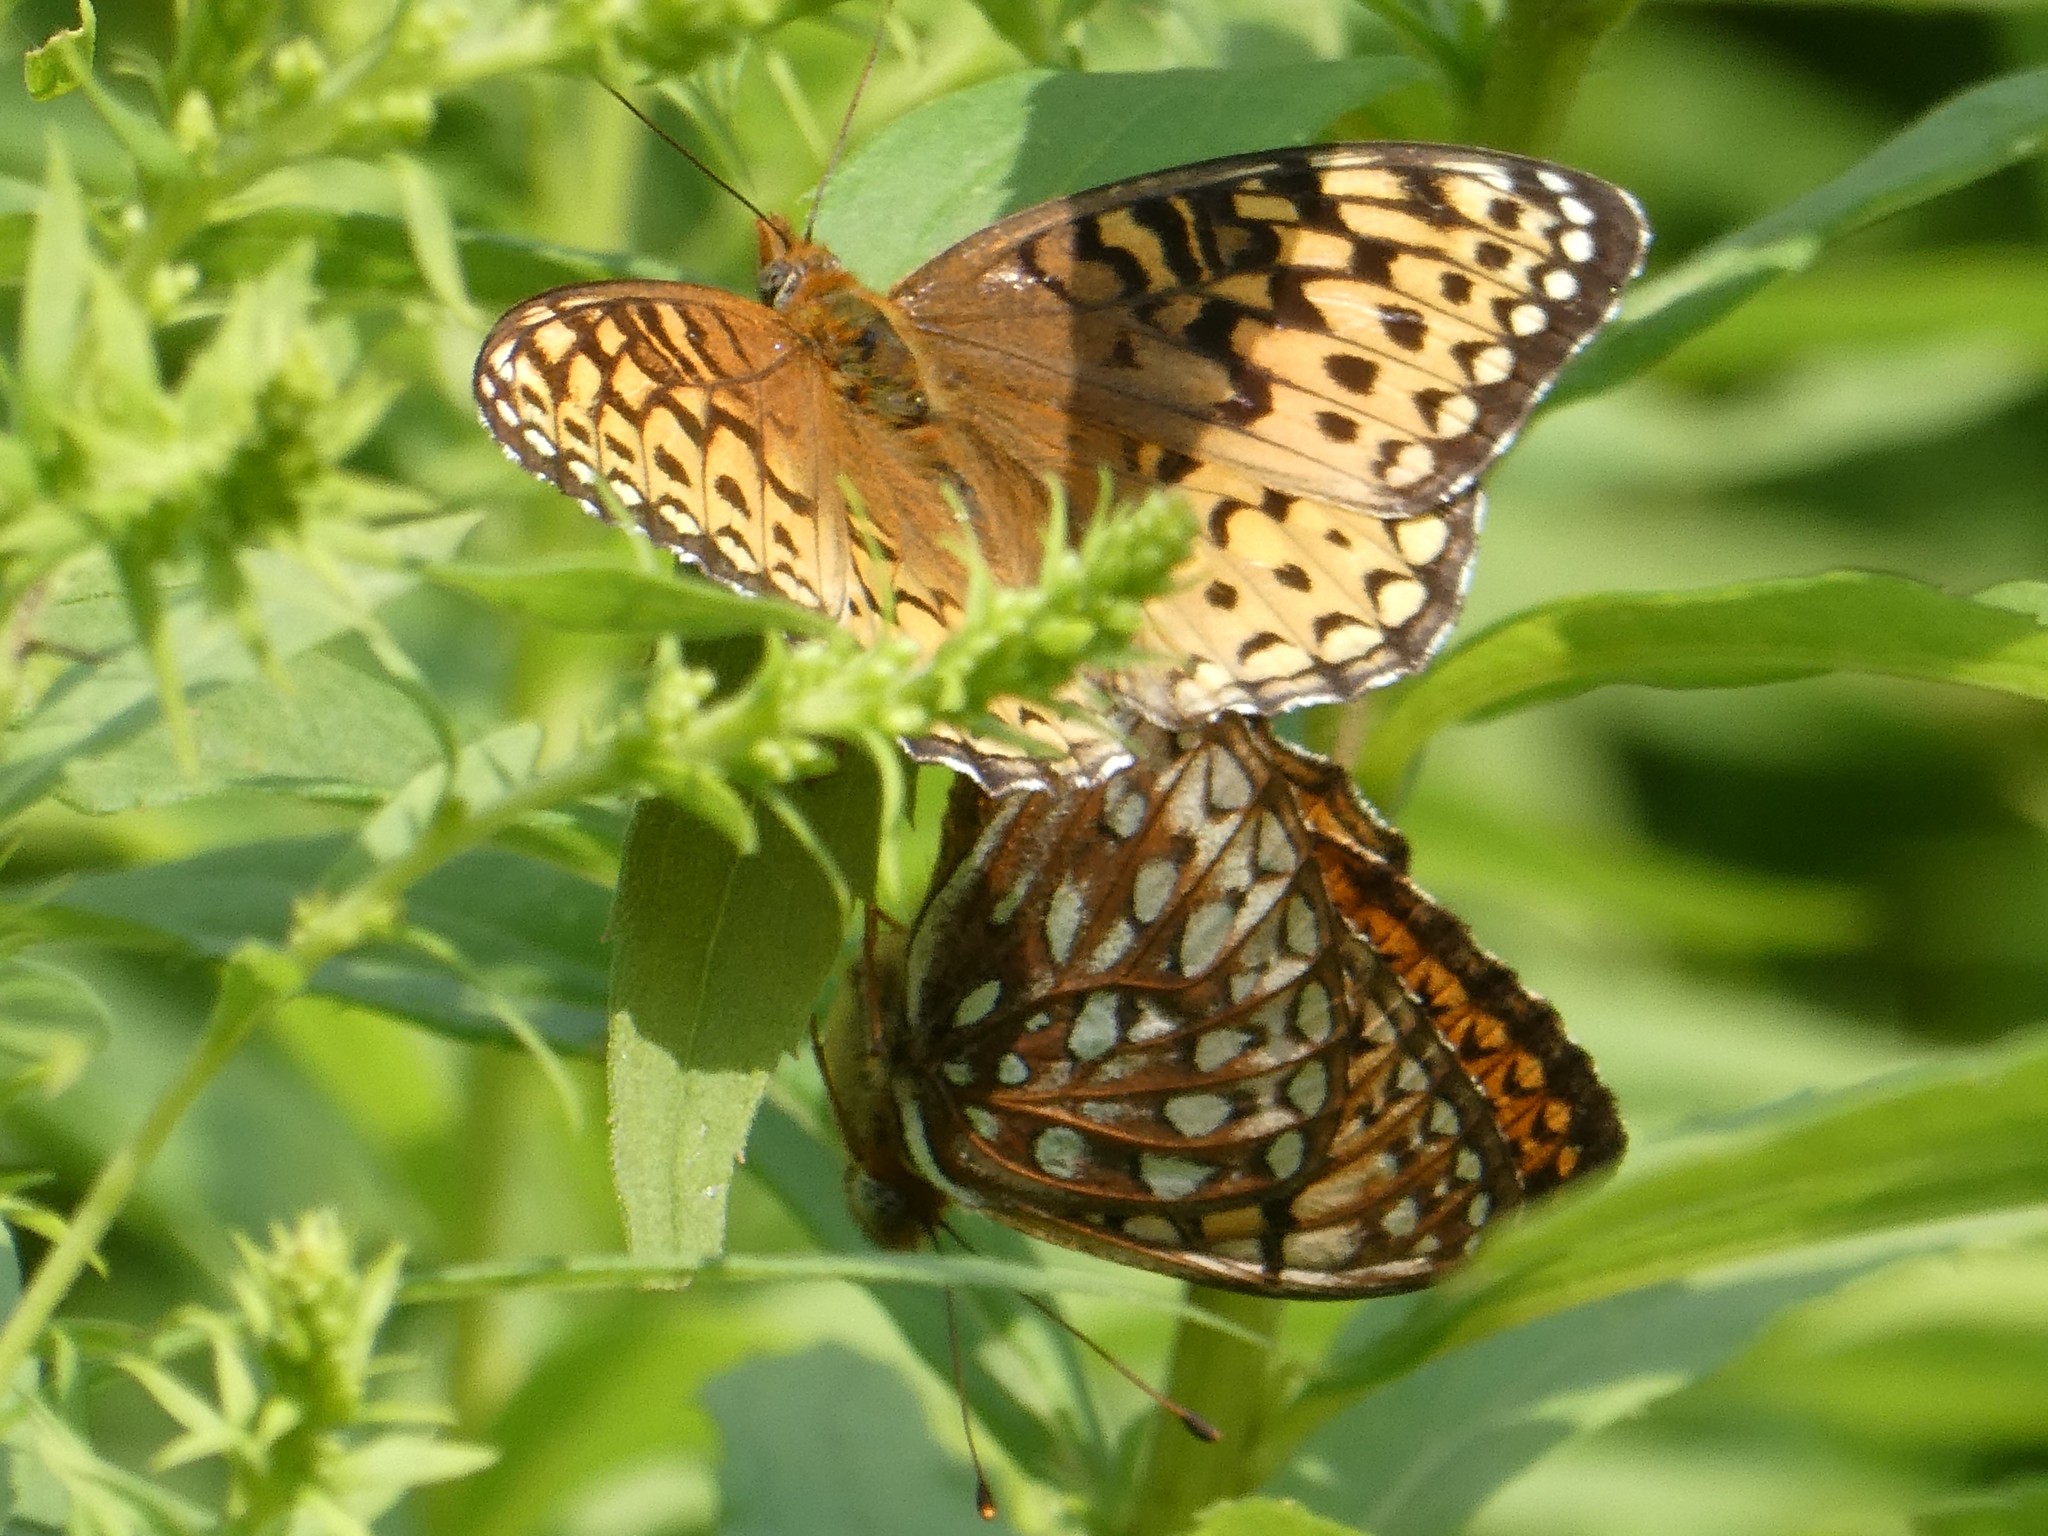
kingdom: Animalia
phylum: Arthropoda
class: Insecta
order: Lepidoptera
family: Nymphalidae
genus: Speyeria
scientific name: Speyeria atlantis
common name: Atlantis fritillary
